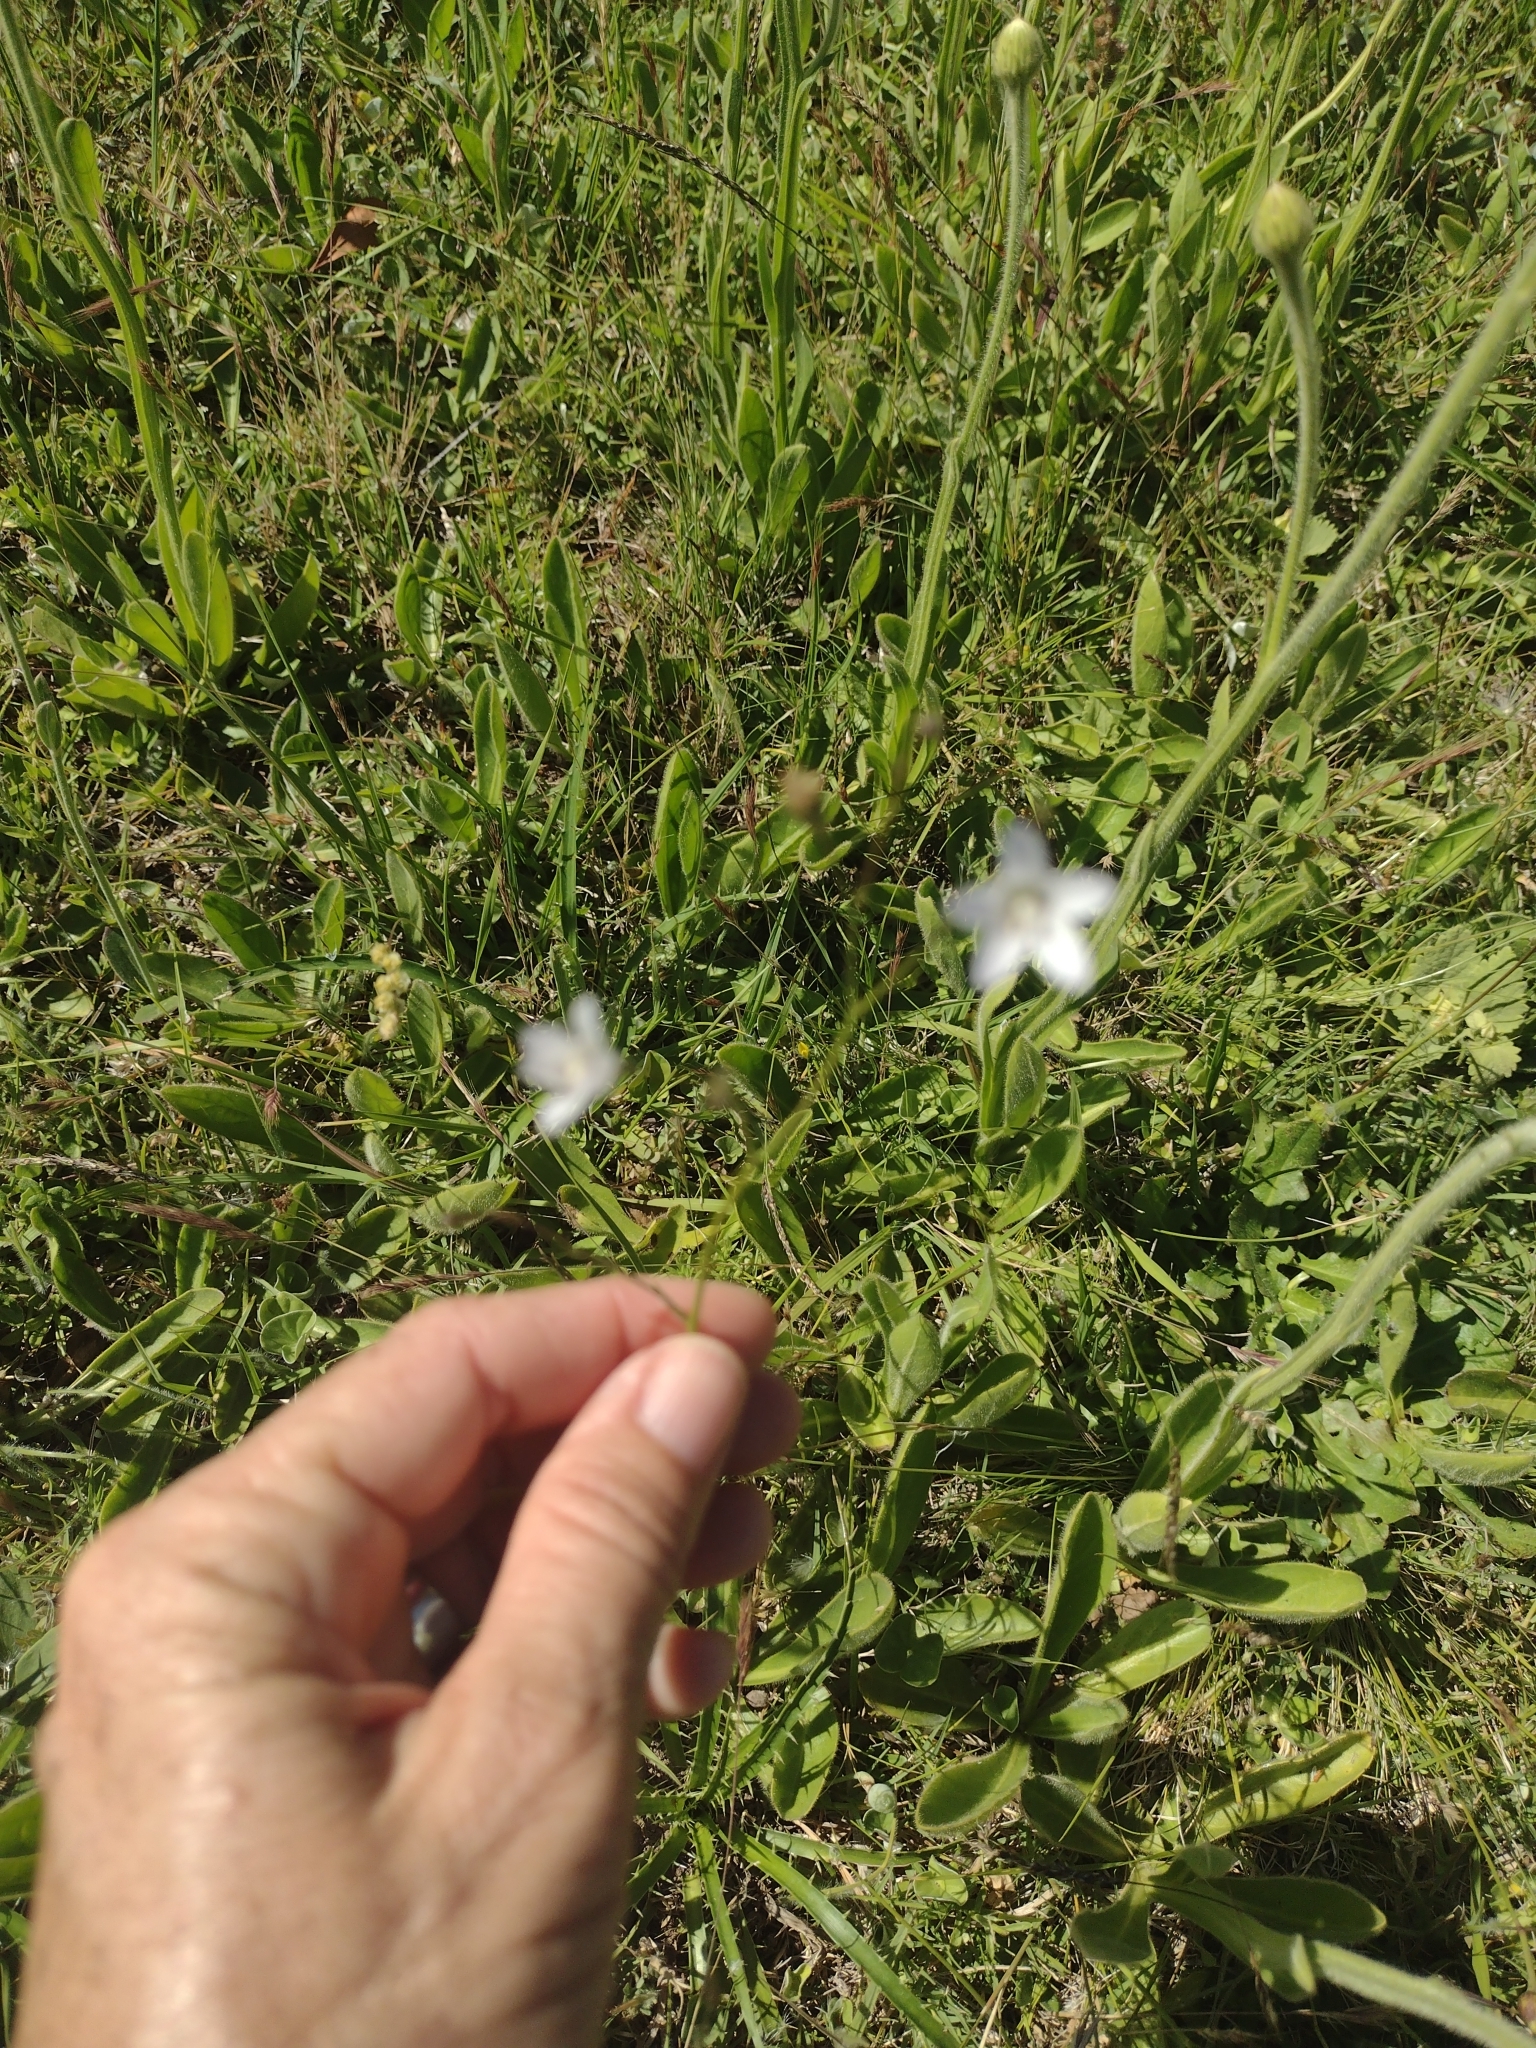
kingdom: Plantae
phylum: Tracheophyta
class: Magnoliopsida
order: Asterales
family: Campanulaceae
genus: Wahlenbergia
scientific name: Wahlenbergia linarioides
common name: Tuffybells
